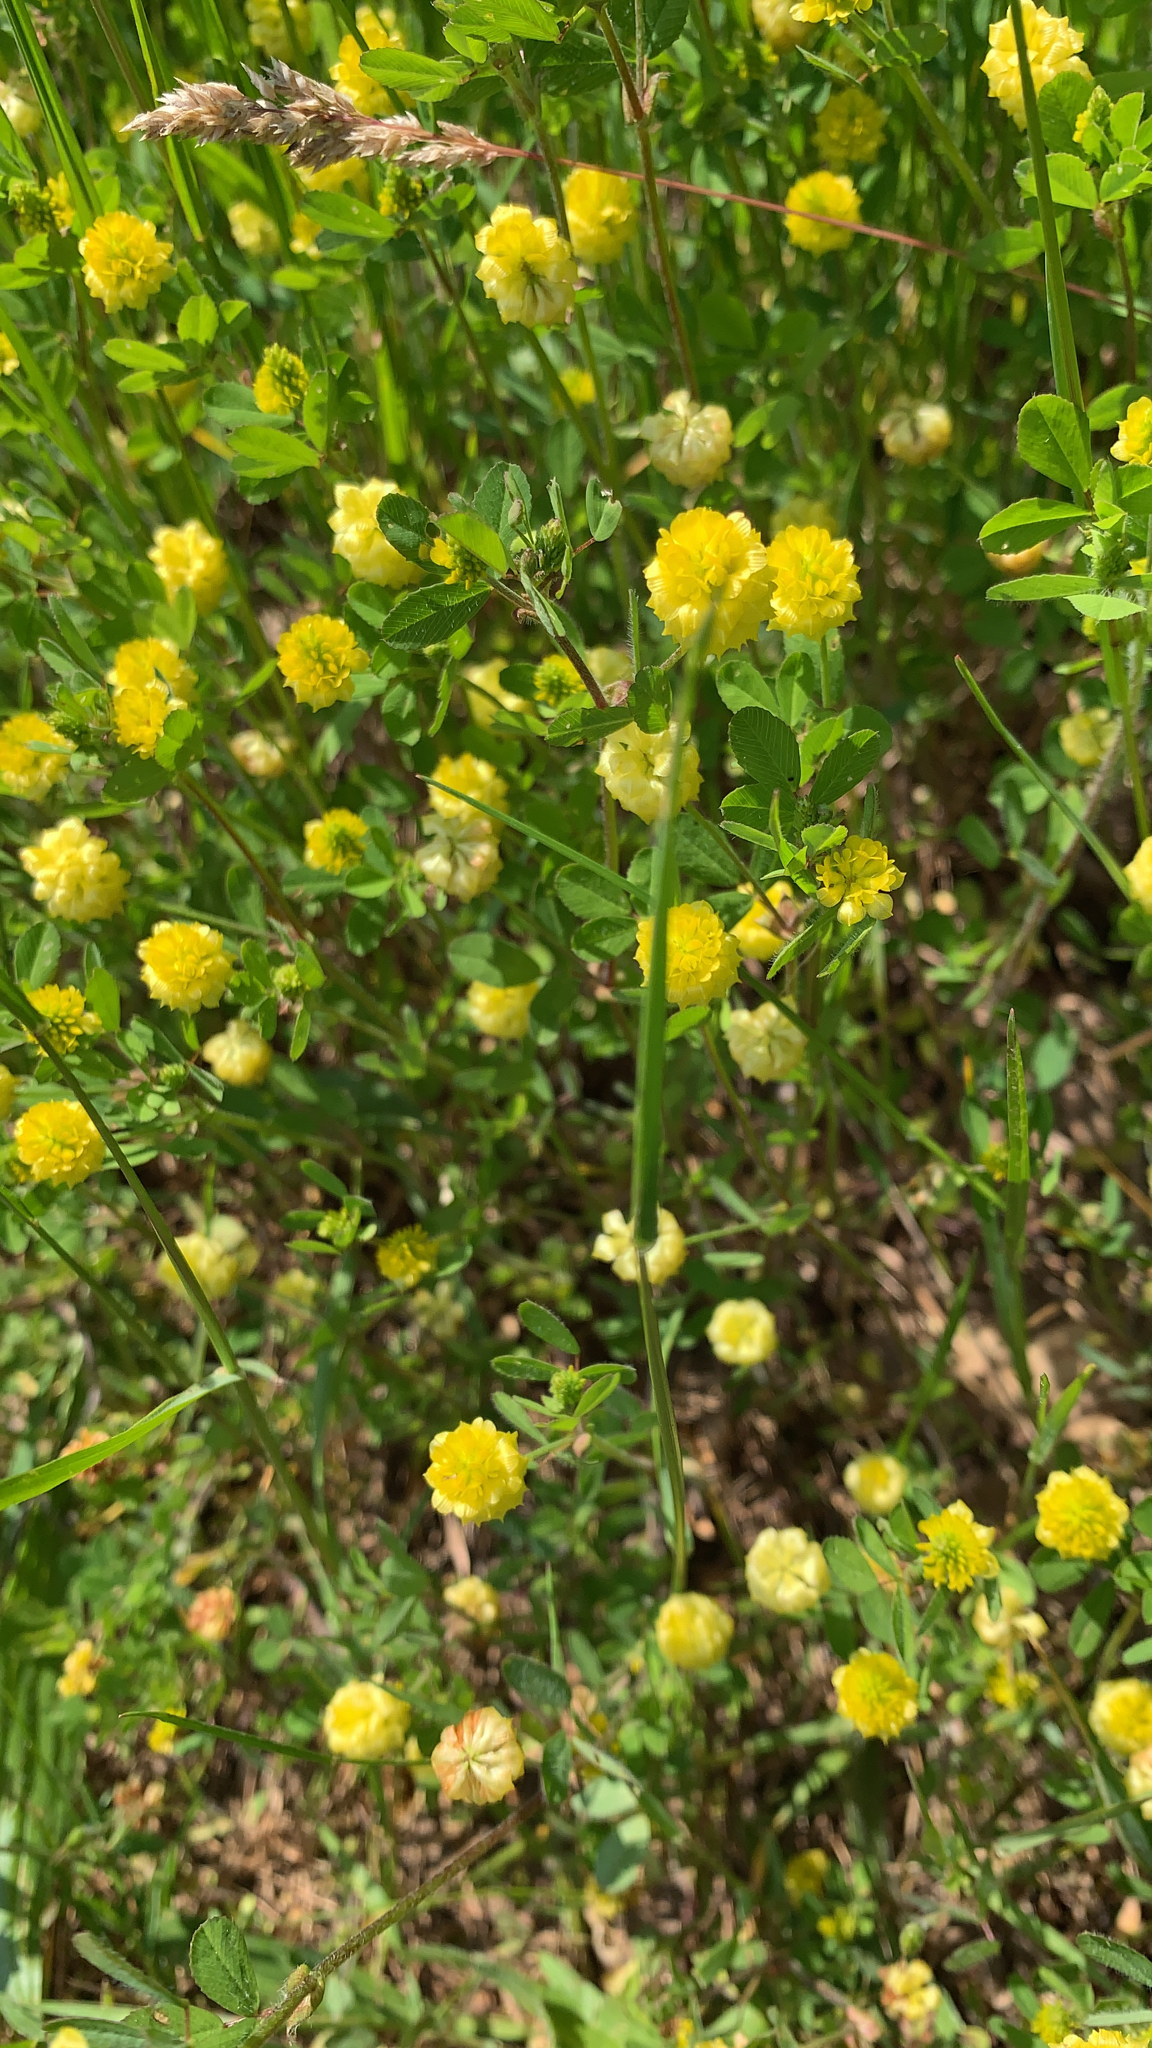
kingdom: Plantae
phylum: Tracheophyta
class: Magnoliopsida
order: Fabales
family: Fabaceae
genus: Trifolium
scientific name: Trifolium campestre
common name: Field clover
